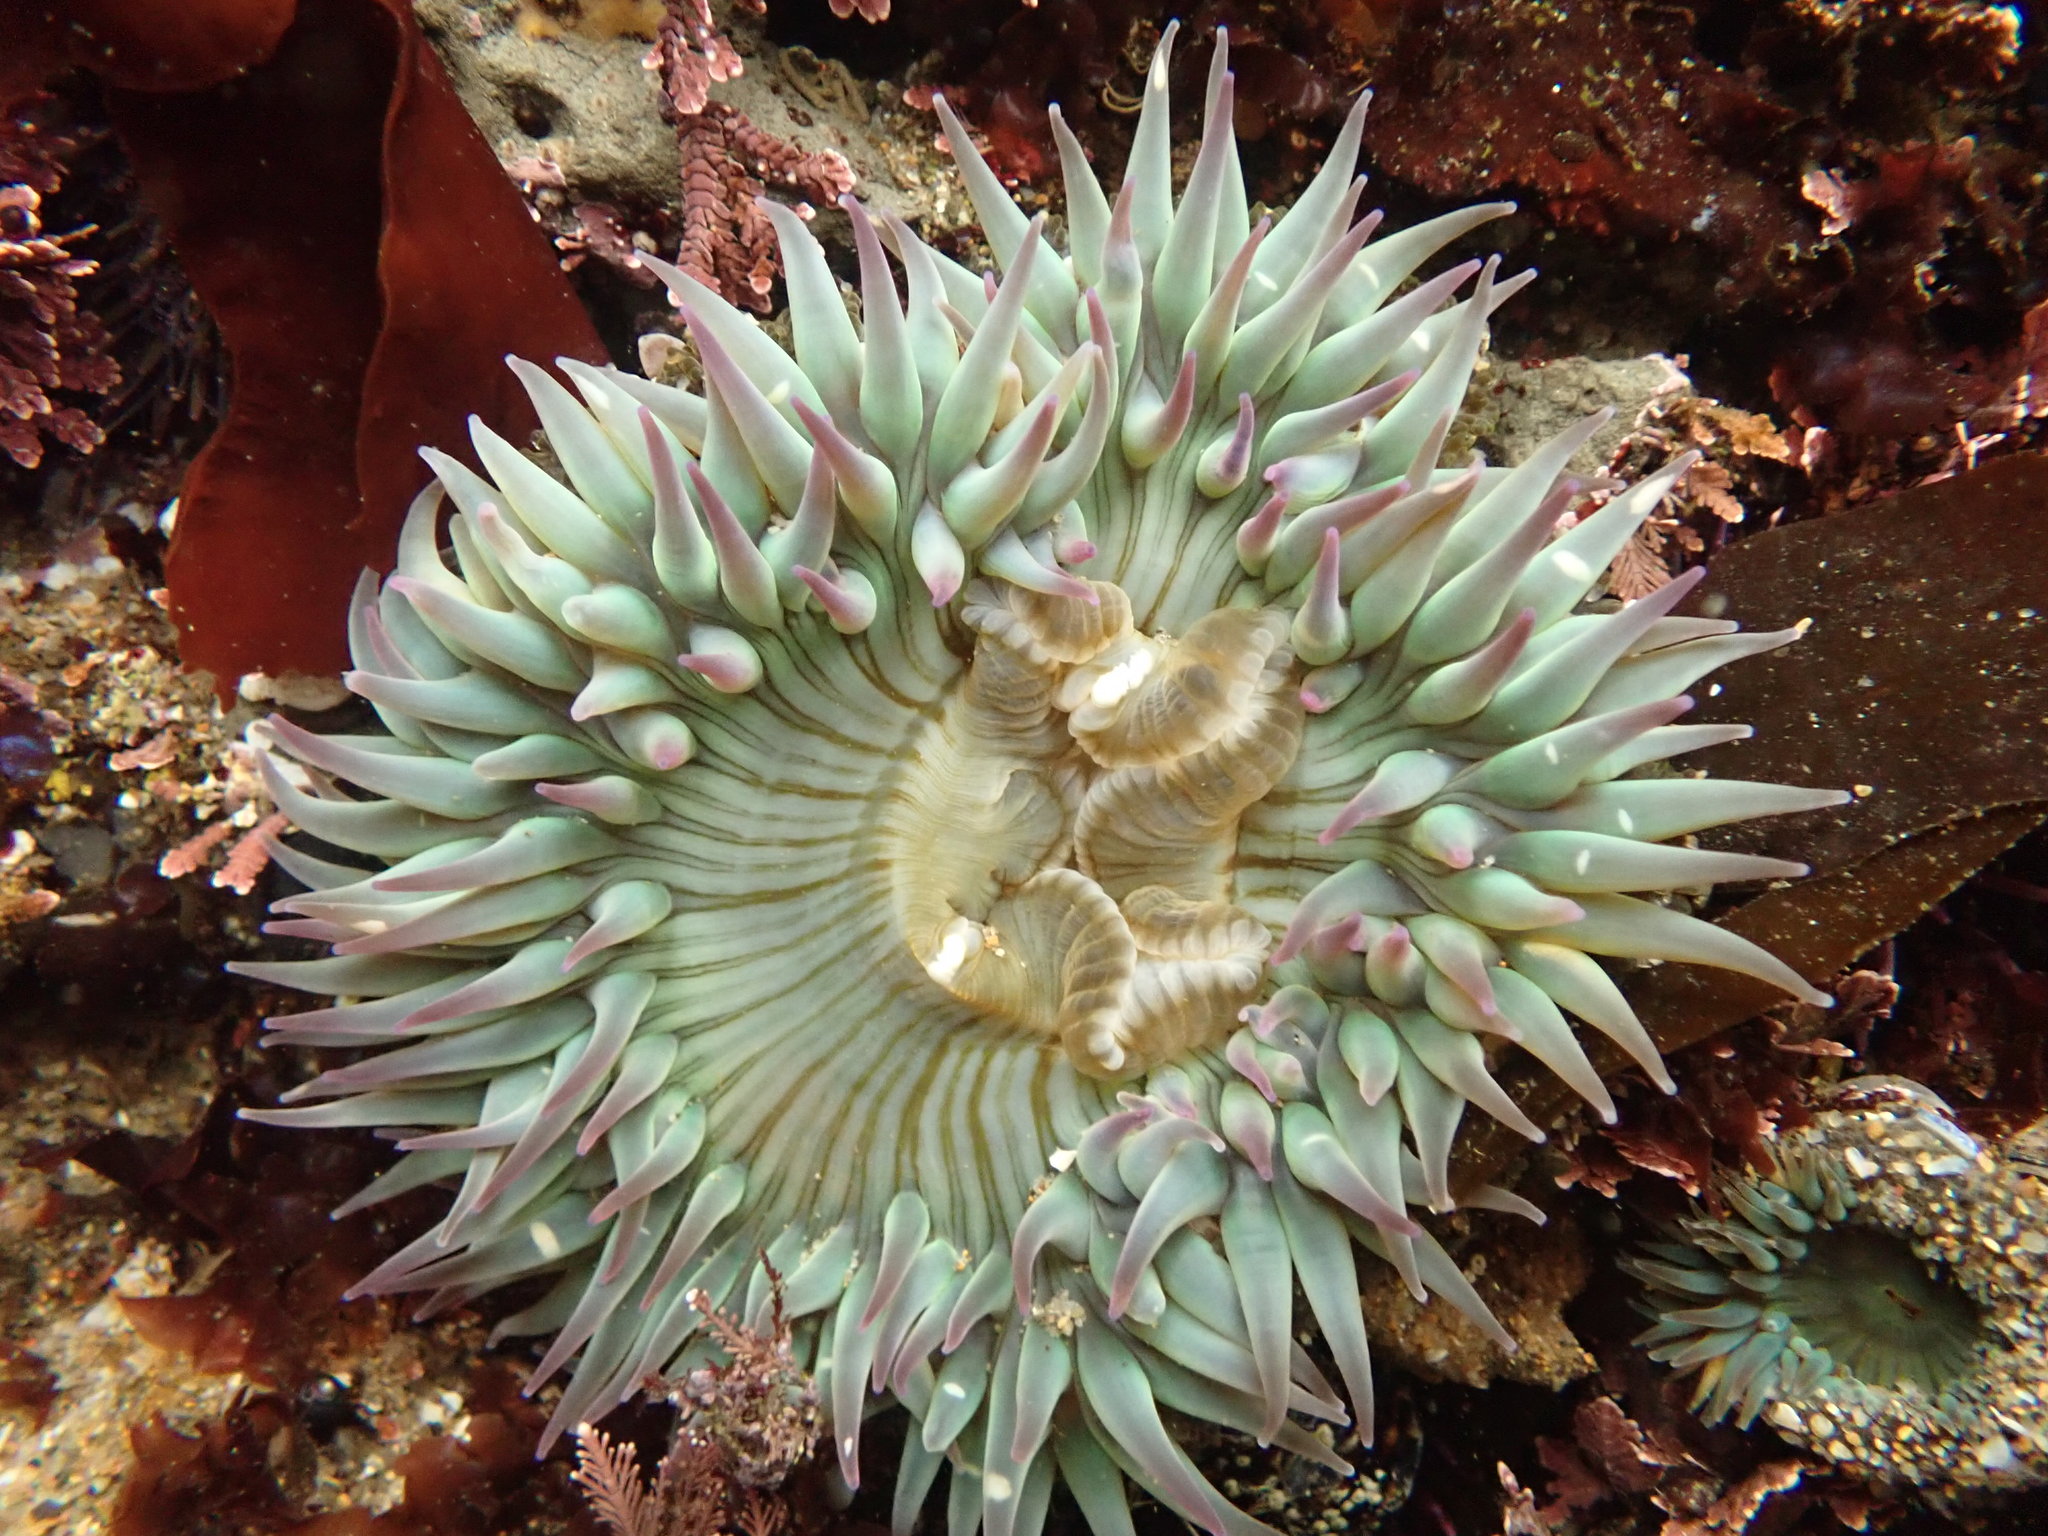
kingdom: Animalia
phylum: Cnidaria
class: Anthozoa
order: Actiniaria
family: Actiniidae
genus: Anthopleura
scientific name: Anthopleura sola
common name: Sun anemone
